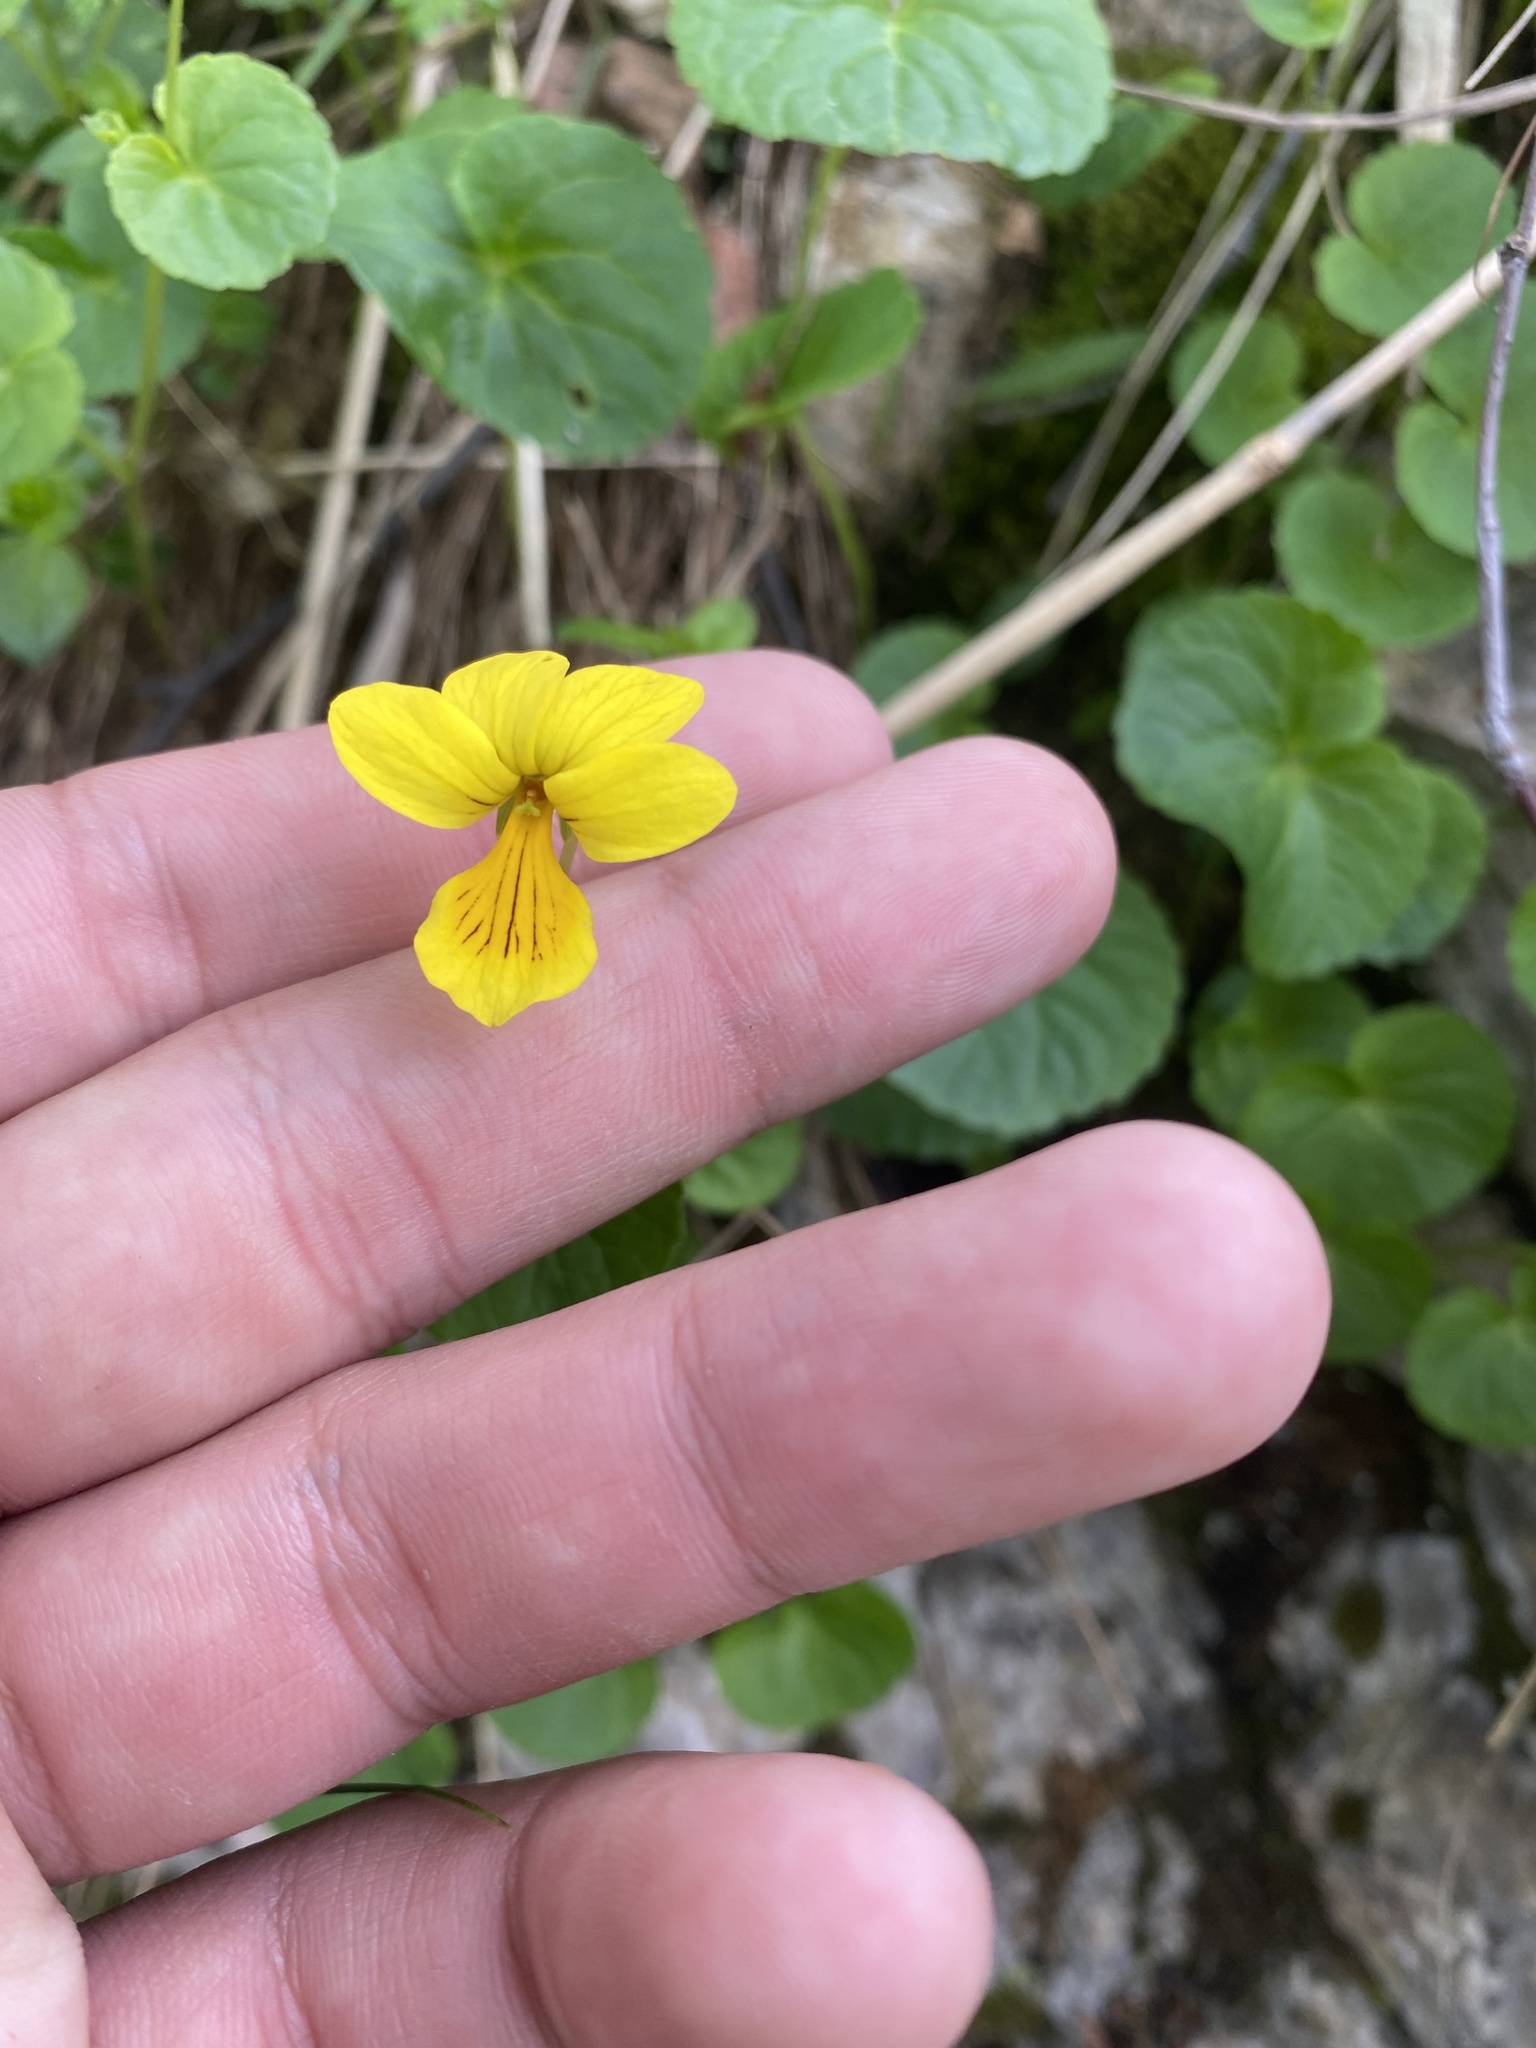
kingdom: Plantae
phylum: Tracheophyta
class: Magnoliopsida
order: Malpighiales
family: Violaceae
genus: Viola
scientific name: Viola caucasica
